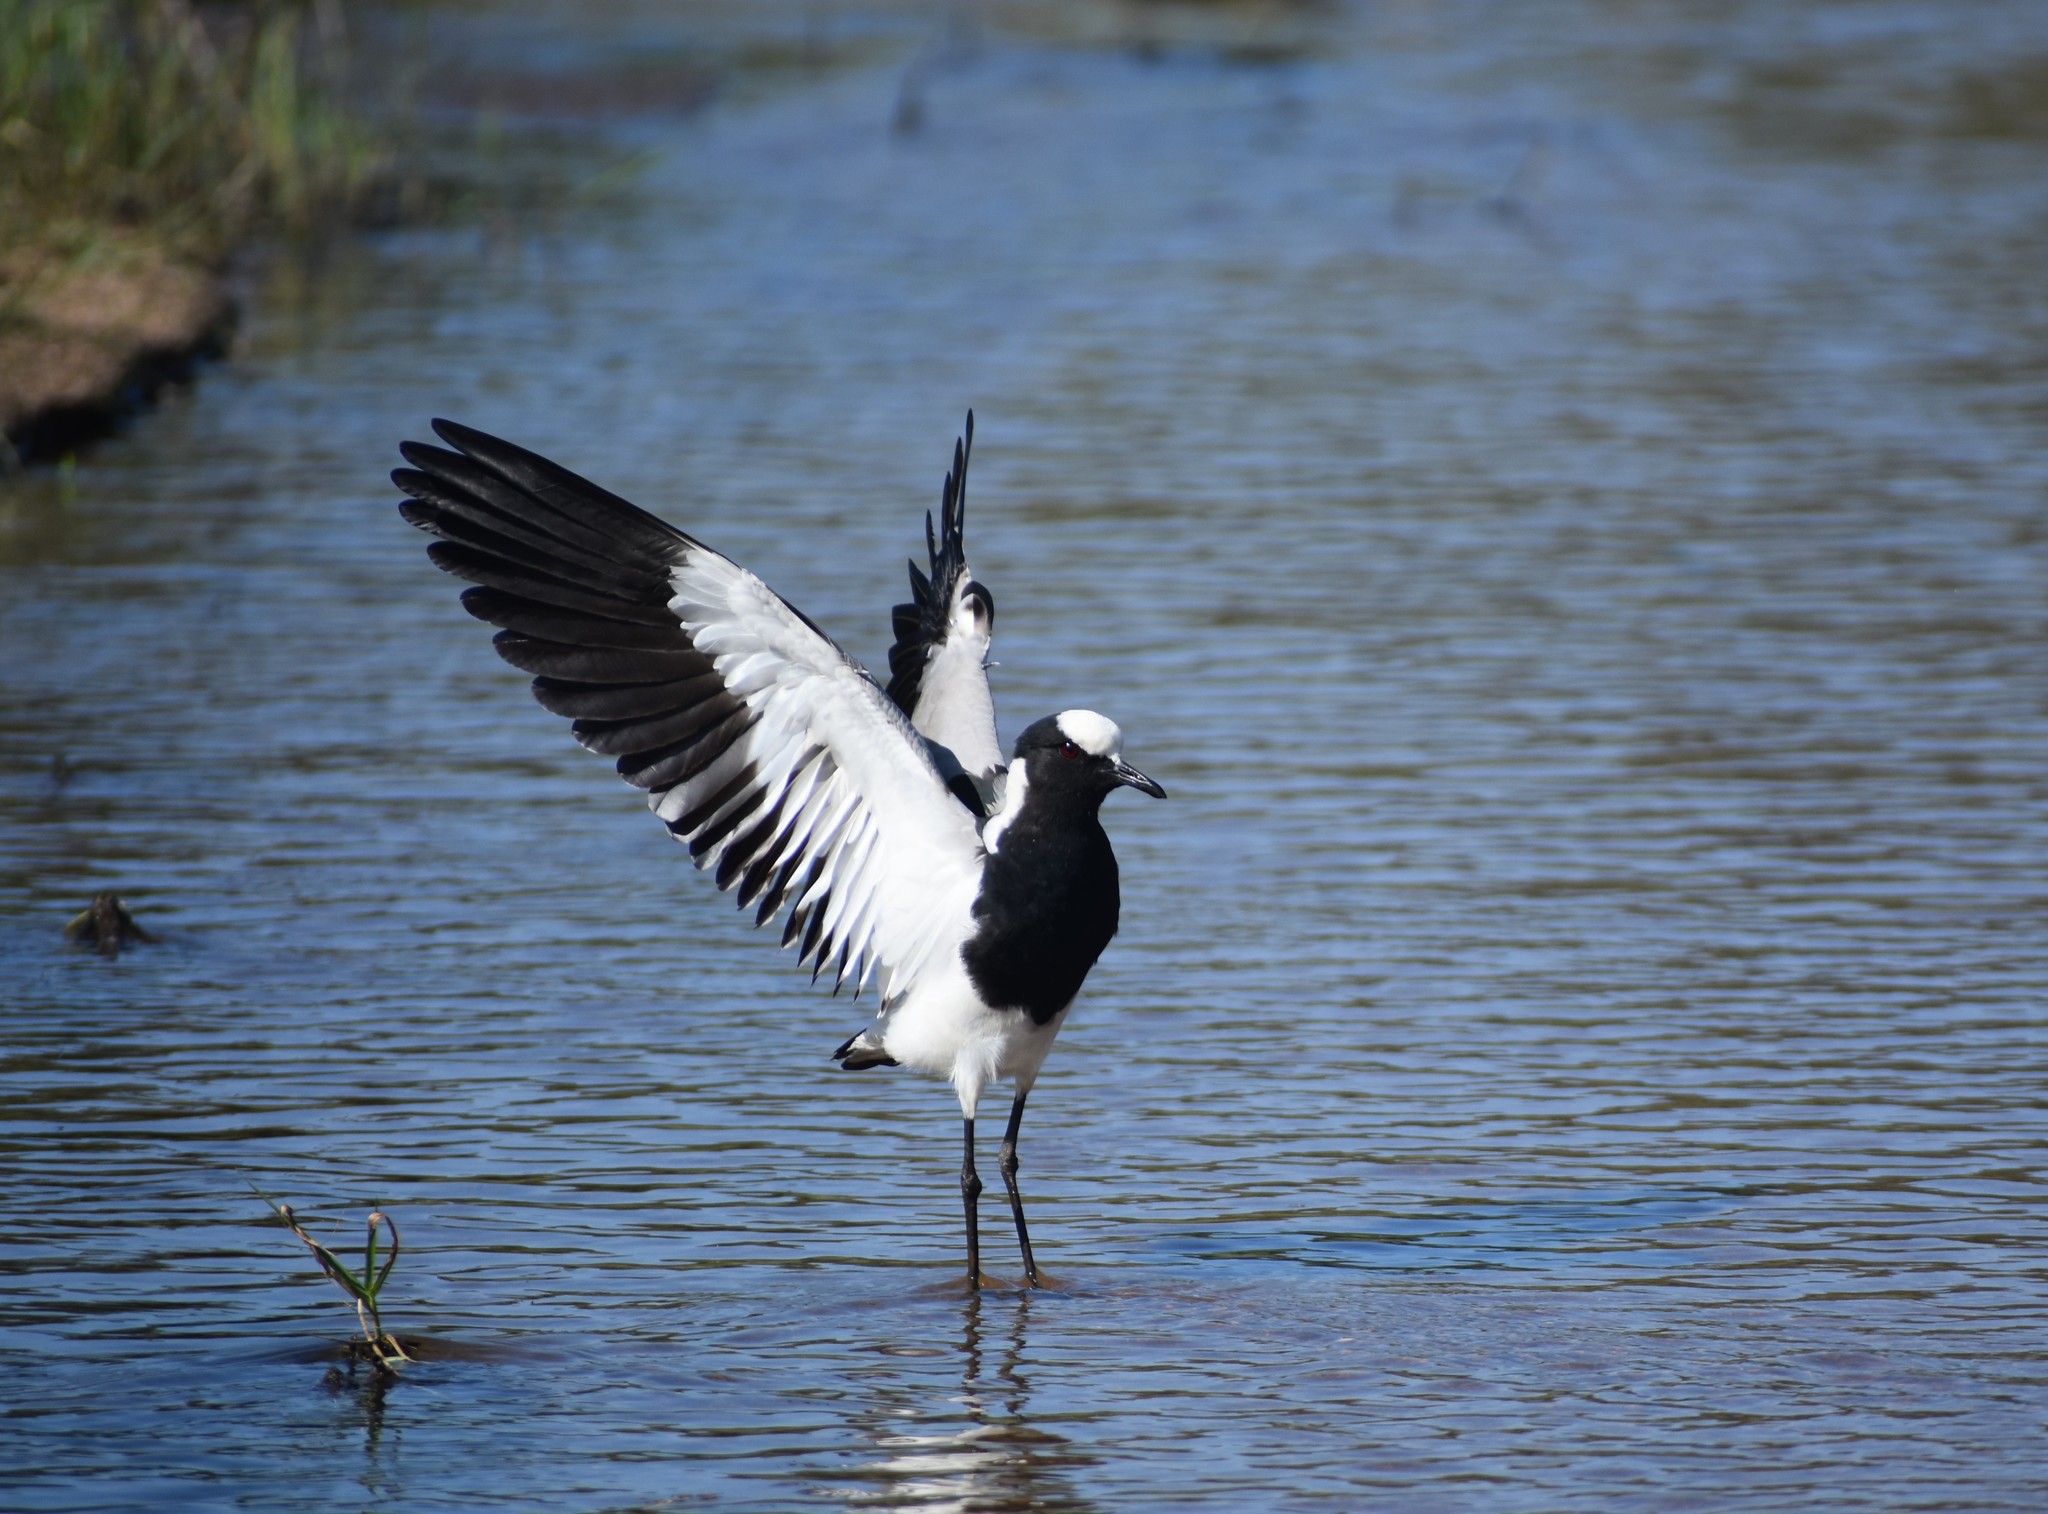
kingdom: Animalia
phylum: Chordata
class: Aves
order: Charadriiformes
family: Charadriidae
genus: Vanellus
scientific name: Vanellus armatus
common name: Blacksmith lapwing
